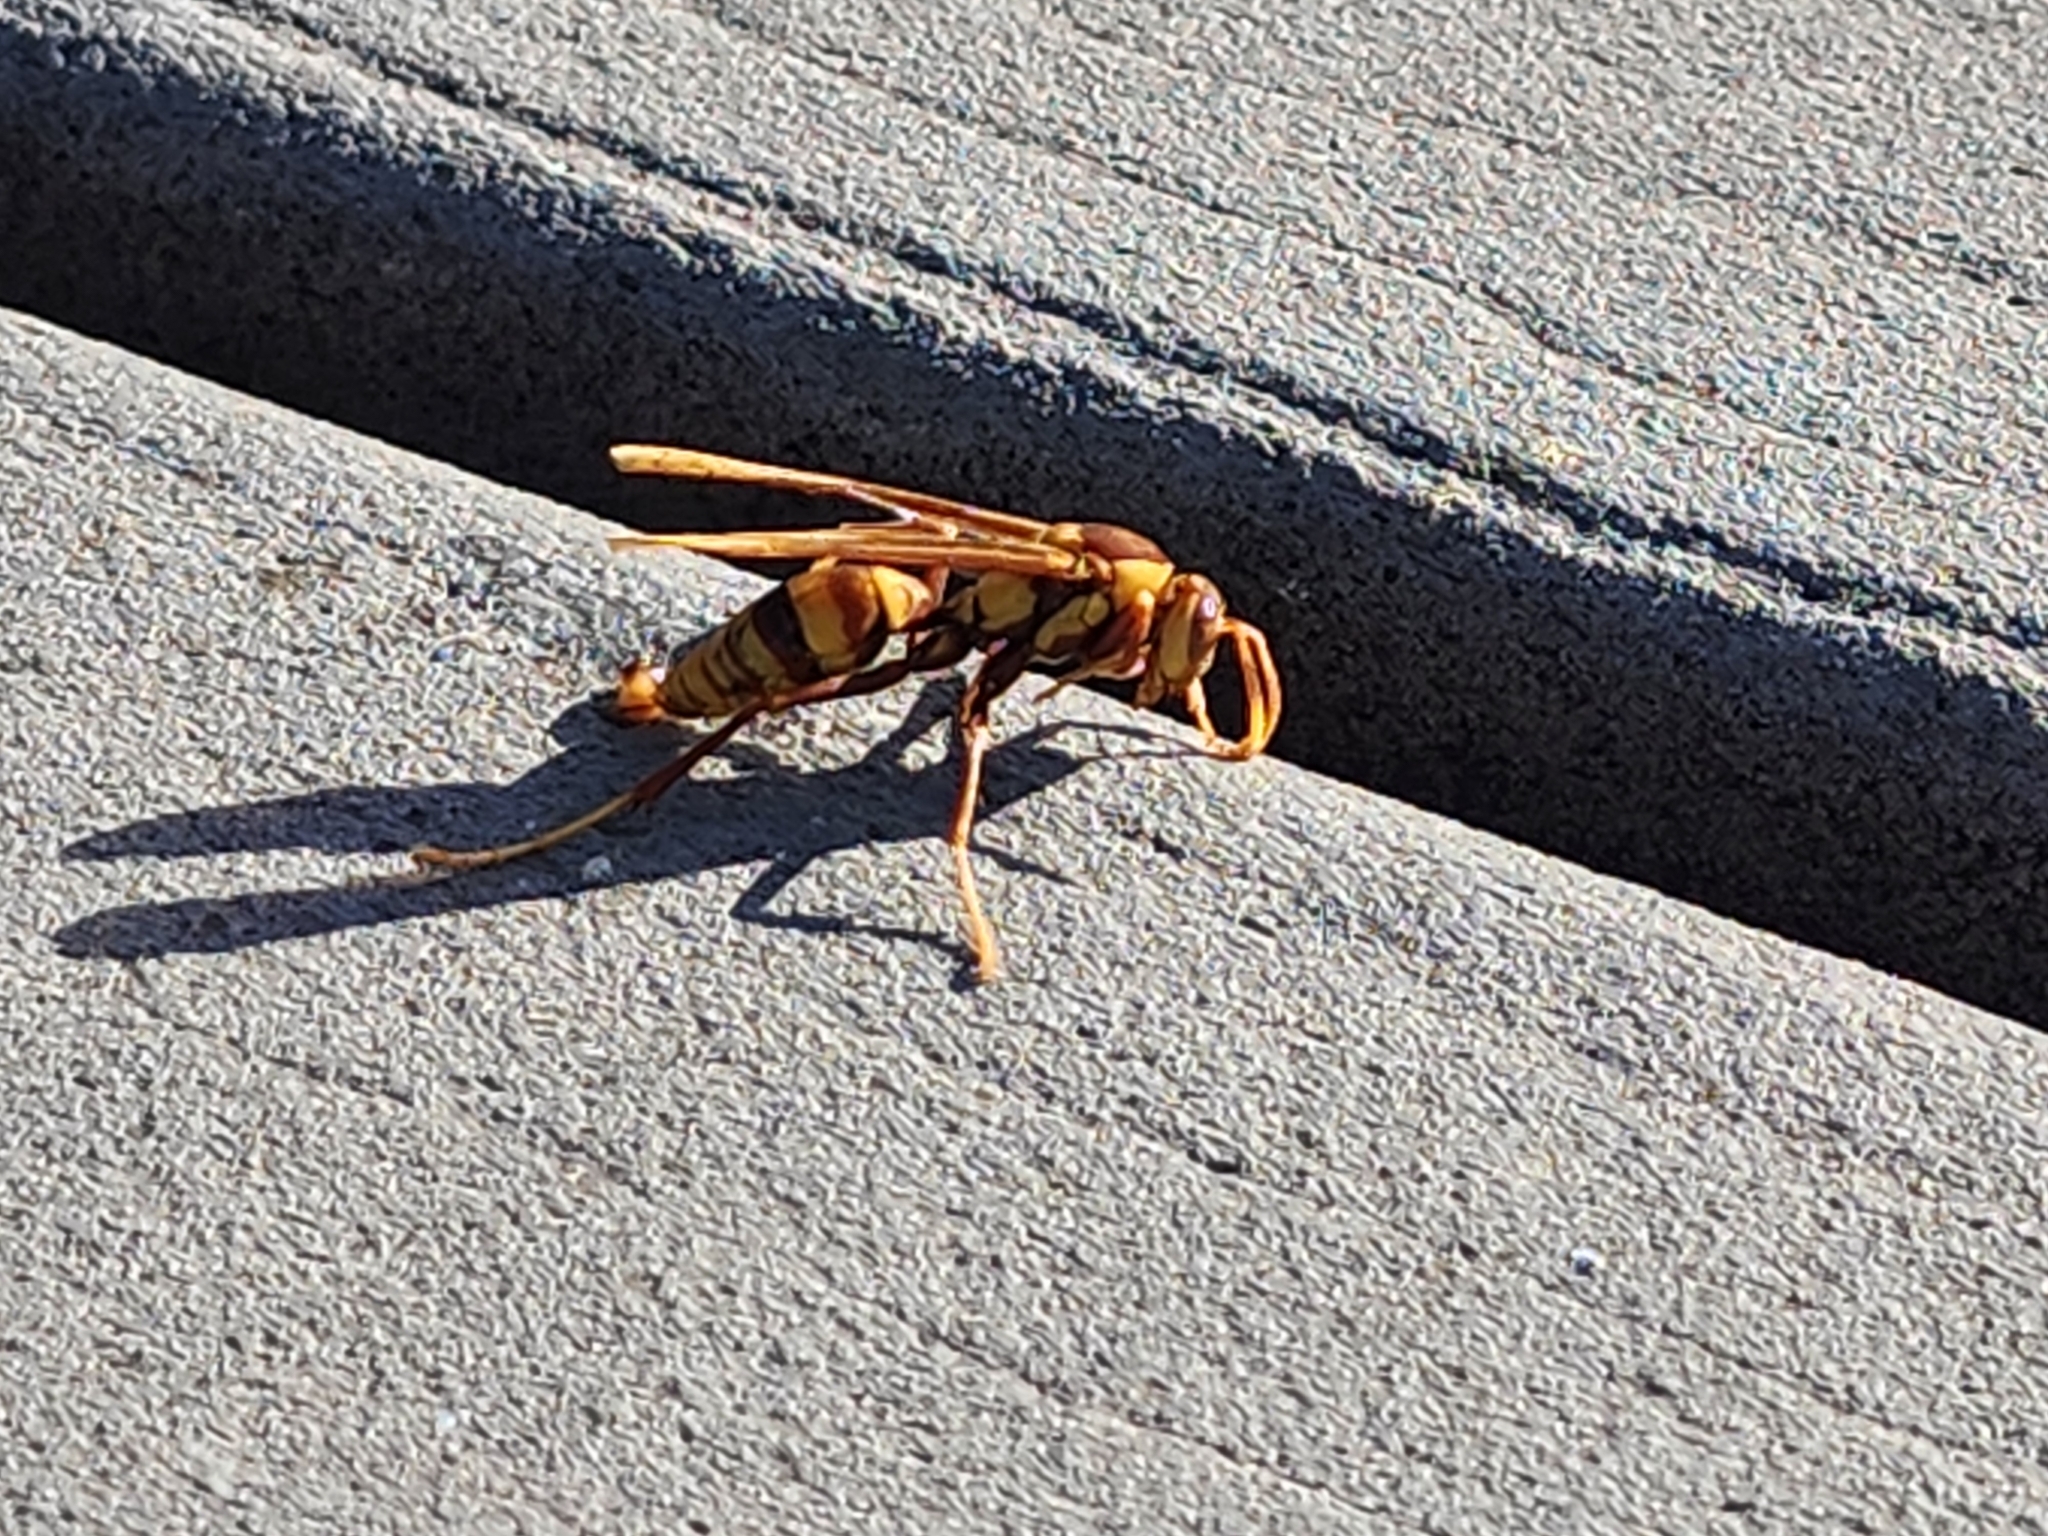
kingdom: Animalia
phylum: Arthropoda
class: Insecta
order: Hymenoptera
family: Eumenidae
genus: Polistes
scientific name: Polistes major
